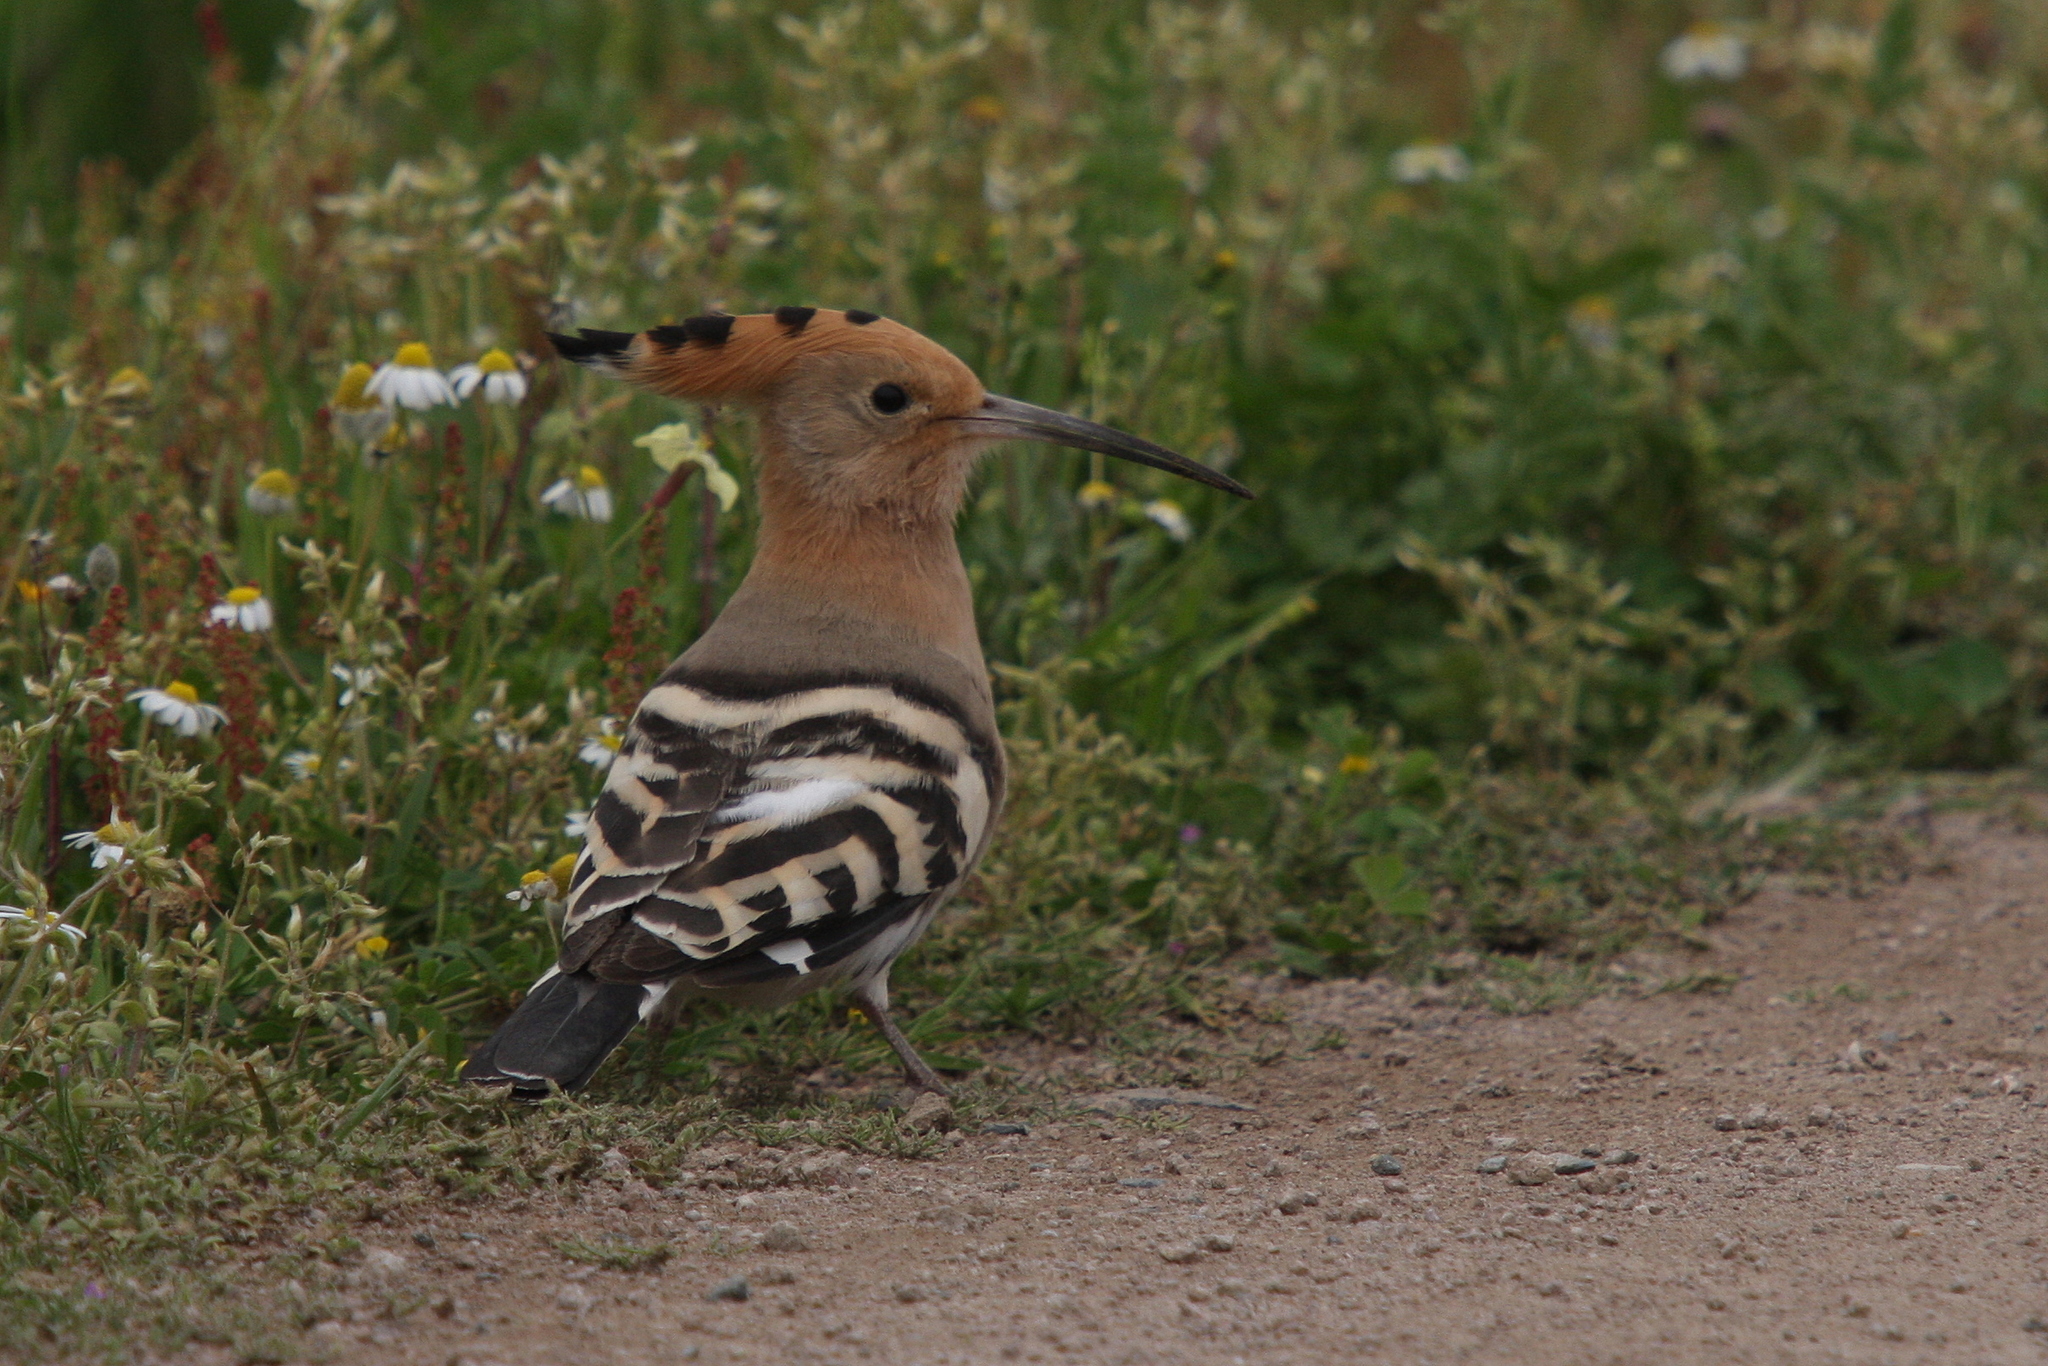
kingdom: Animalia
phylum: Chordata
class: Aves
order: Bucerotiformes
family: Upupidae
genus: Upupa
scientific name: Upupa epops
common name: Eurasian hoopoe
